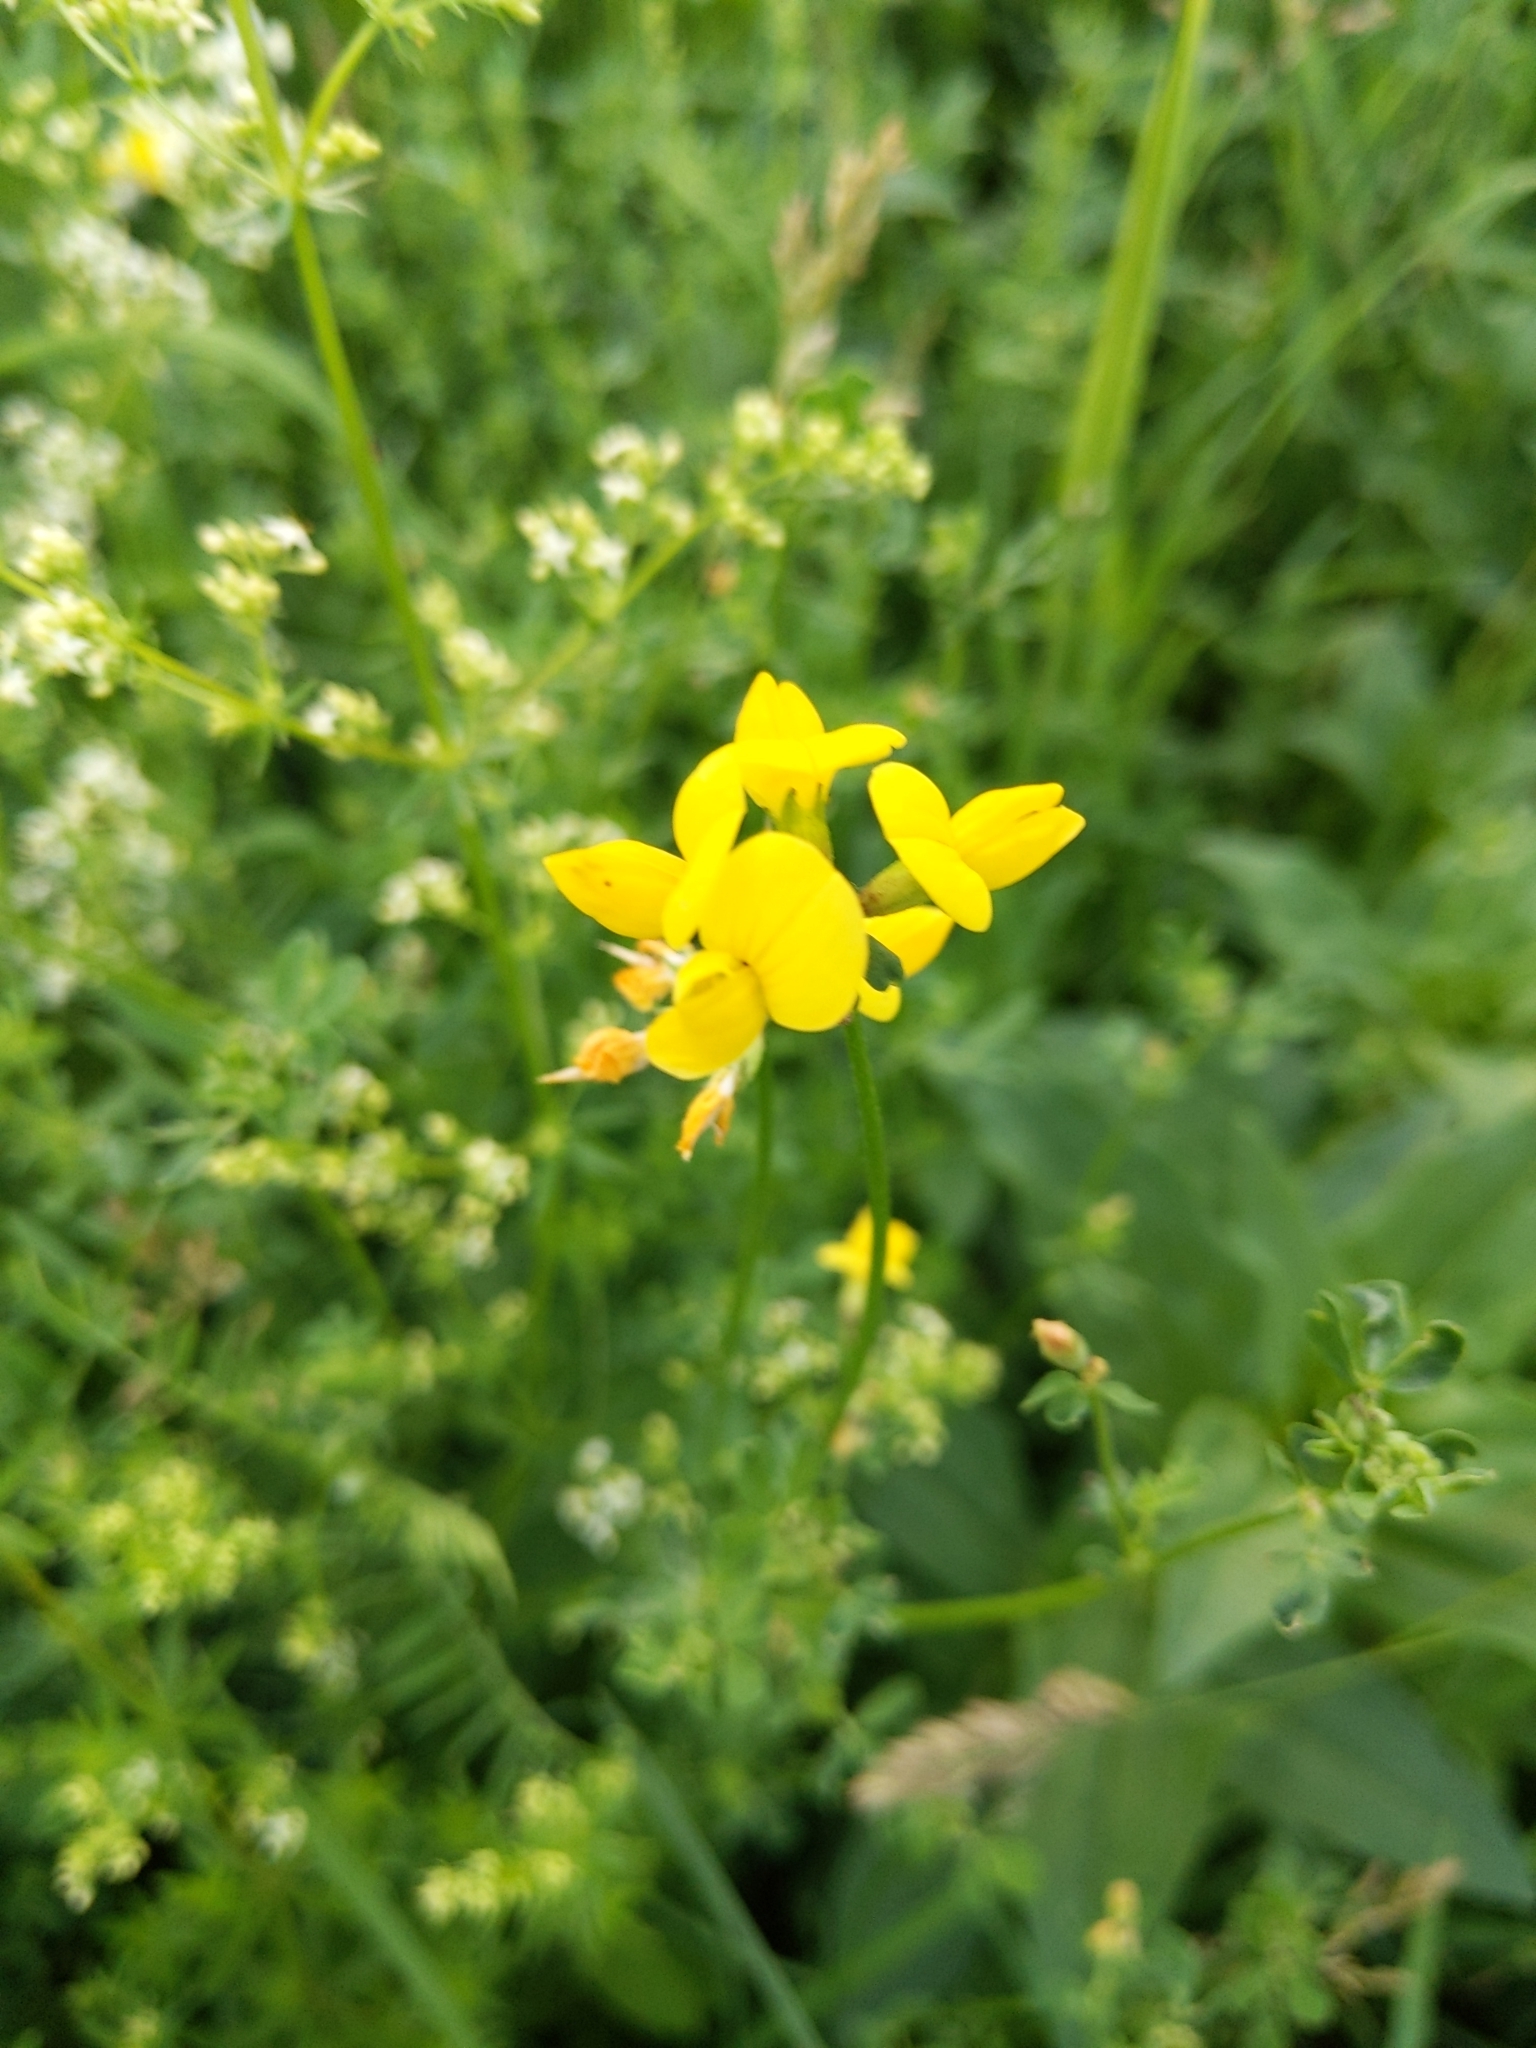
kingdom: Plantae
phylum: Tracheophyta
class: Magnoliopsida
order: Fabales
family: Fabaceae
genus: Lotus
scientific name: Lotus corniculatus
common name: Common bird's-foot-trefoil
